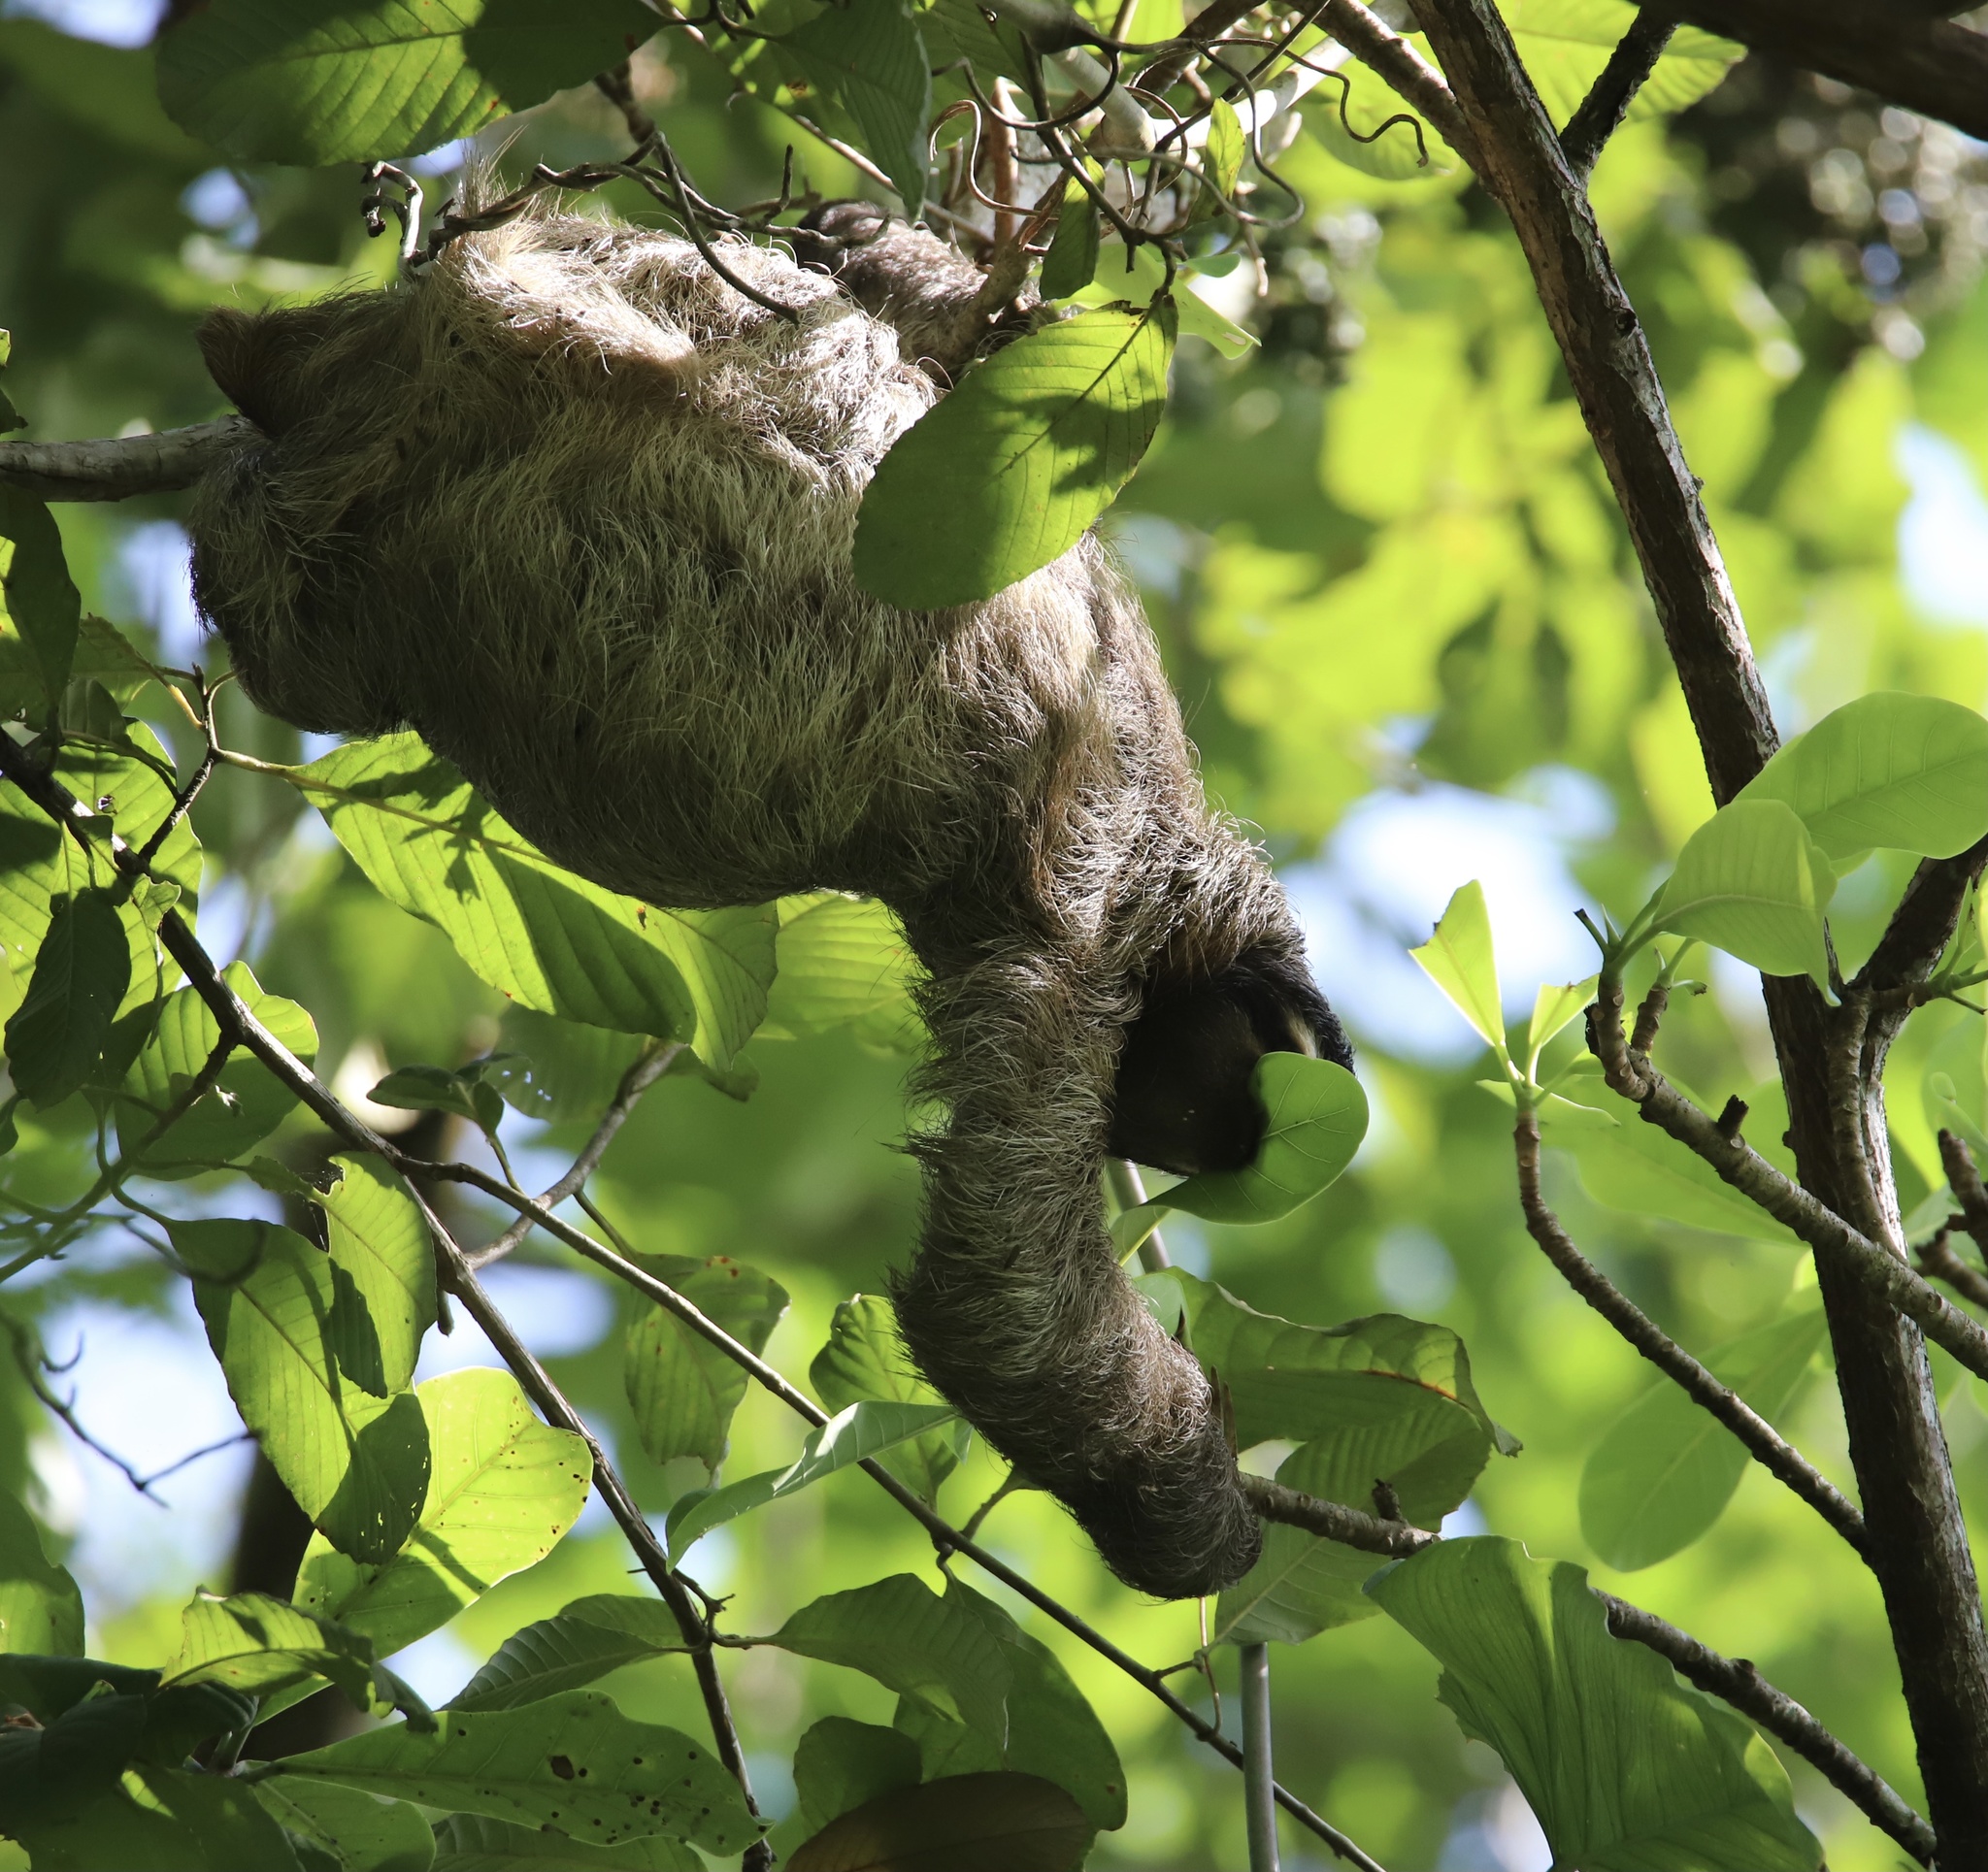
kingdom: Animalia
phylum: Chordata
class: Mammalia
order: Pilosa
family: Bradypodidae
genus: Bradypus
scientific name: Bradypus variegatus
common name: Brown-throated three-toed sloth
